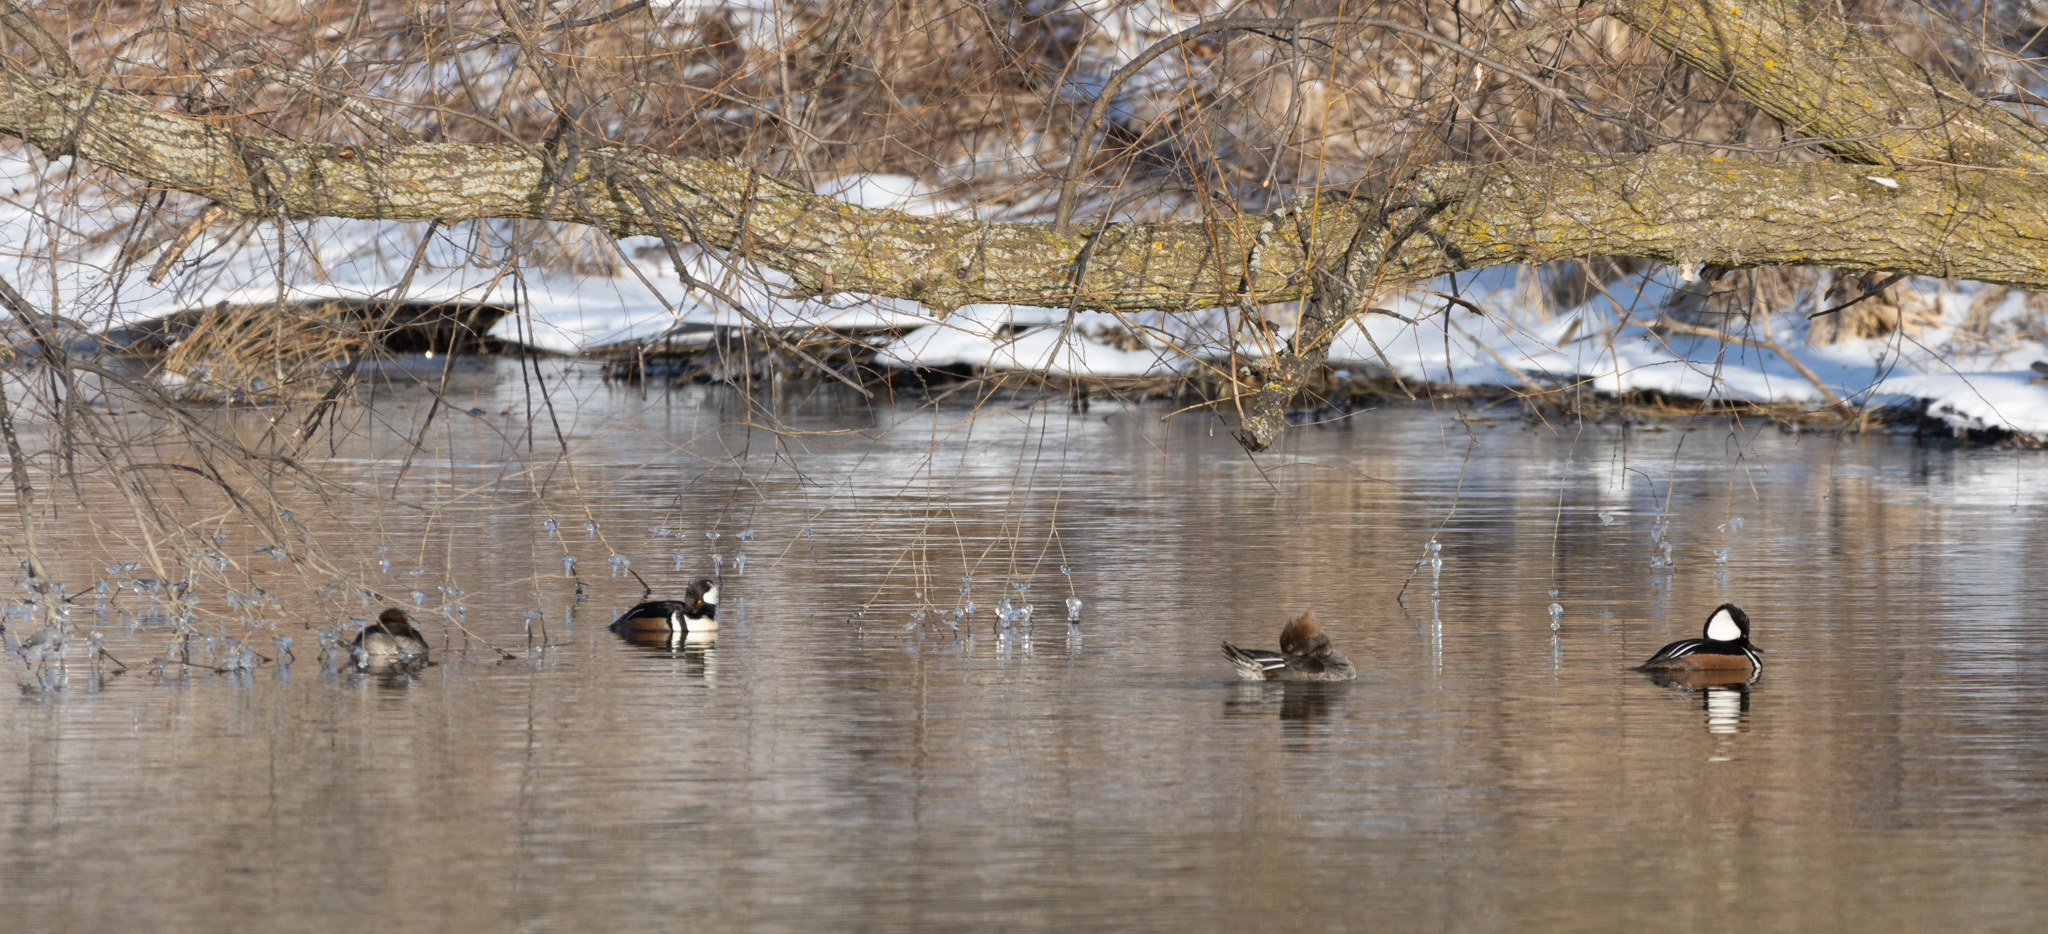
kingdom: Animalia
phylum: Chordata
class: Aves
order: Anseriformes
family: Anatidae
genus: Lophodytes
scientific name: Lophodytes cucullatus
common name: Hooded merganser
